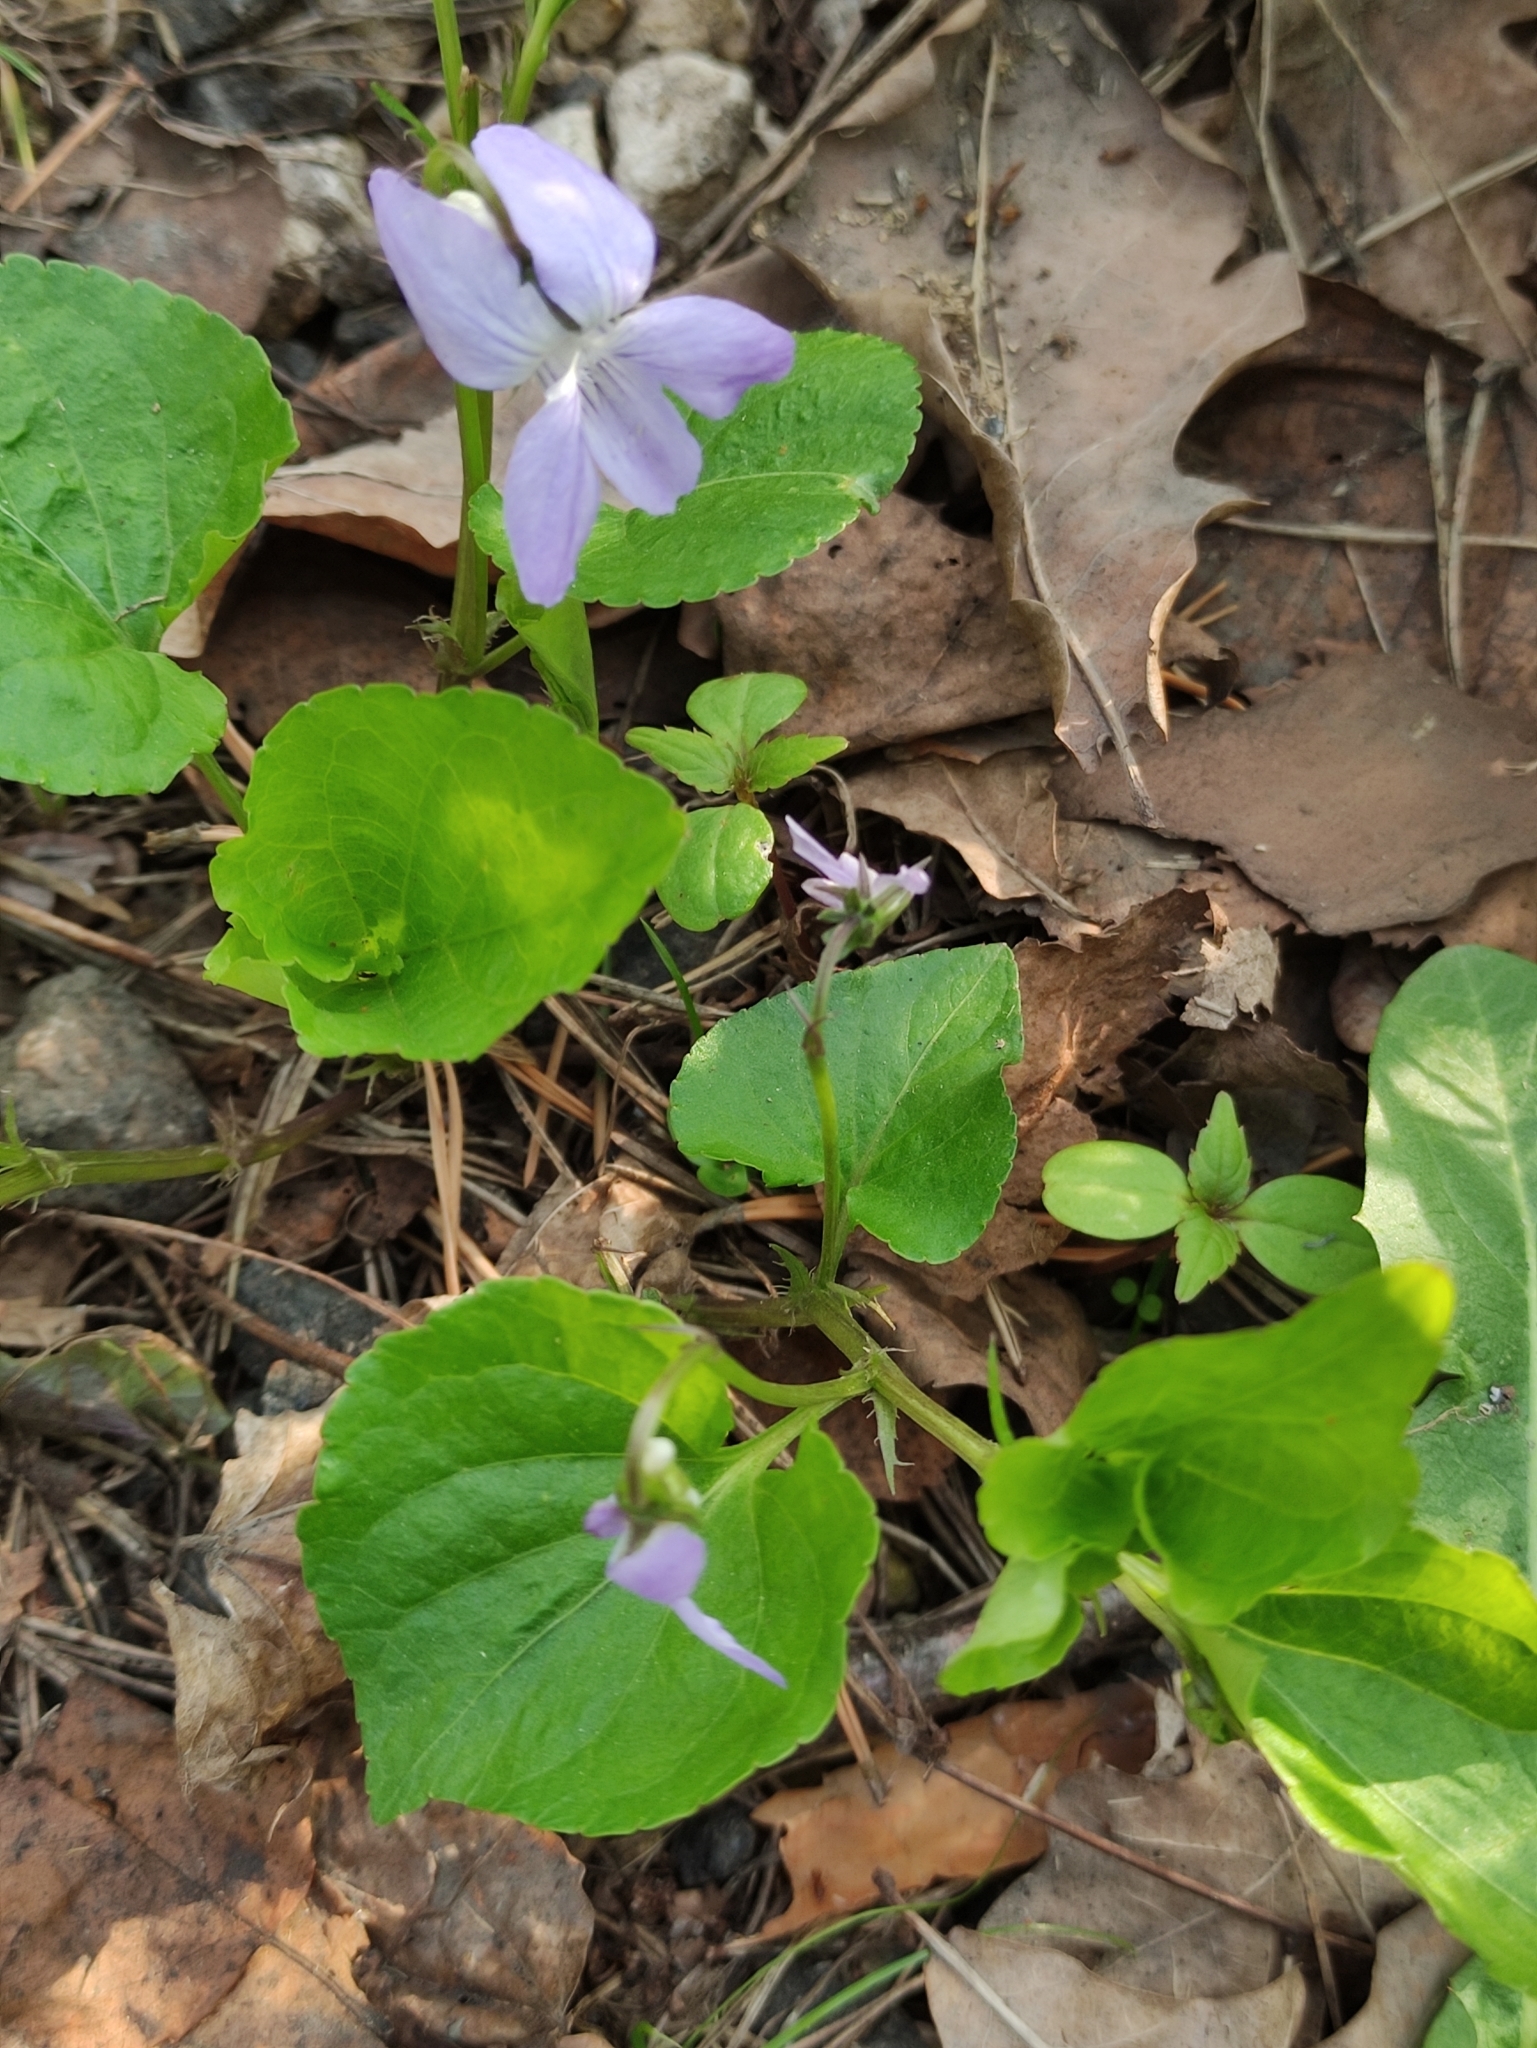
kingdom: Plantae
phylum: Tracheophyta
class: Magnoliopsida
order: Malpighiales
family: Violaceae
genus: Viola
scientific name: Viola riviniana
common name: Common dog-violet
